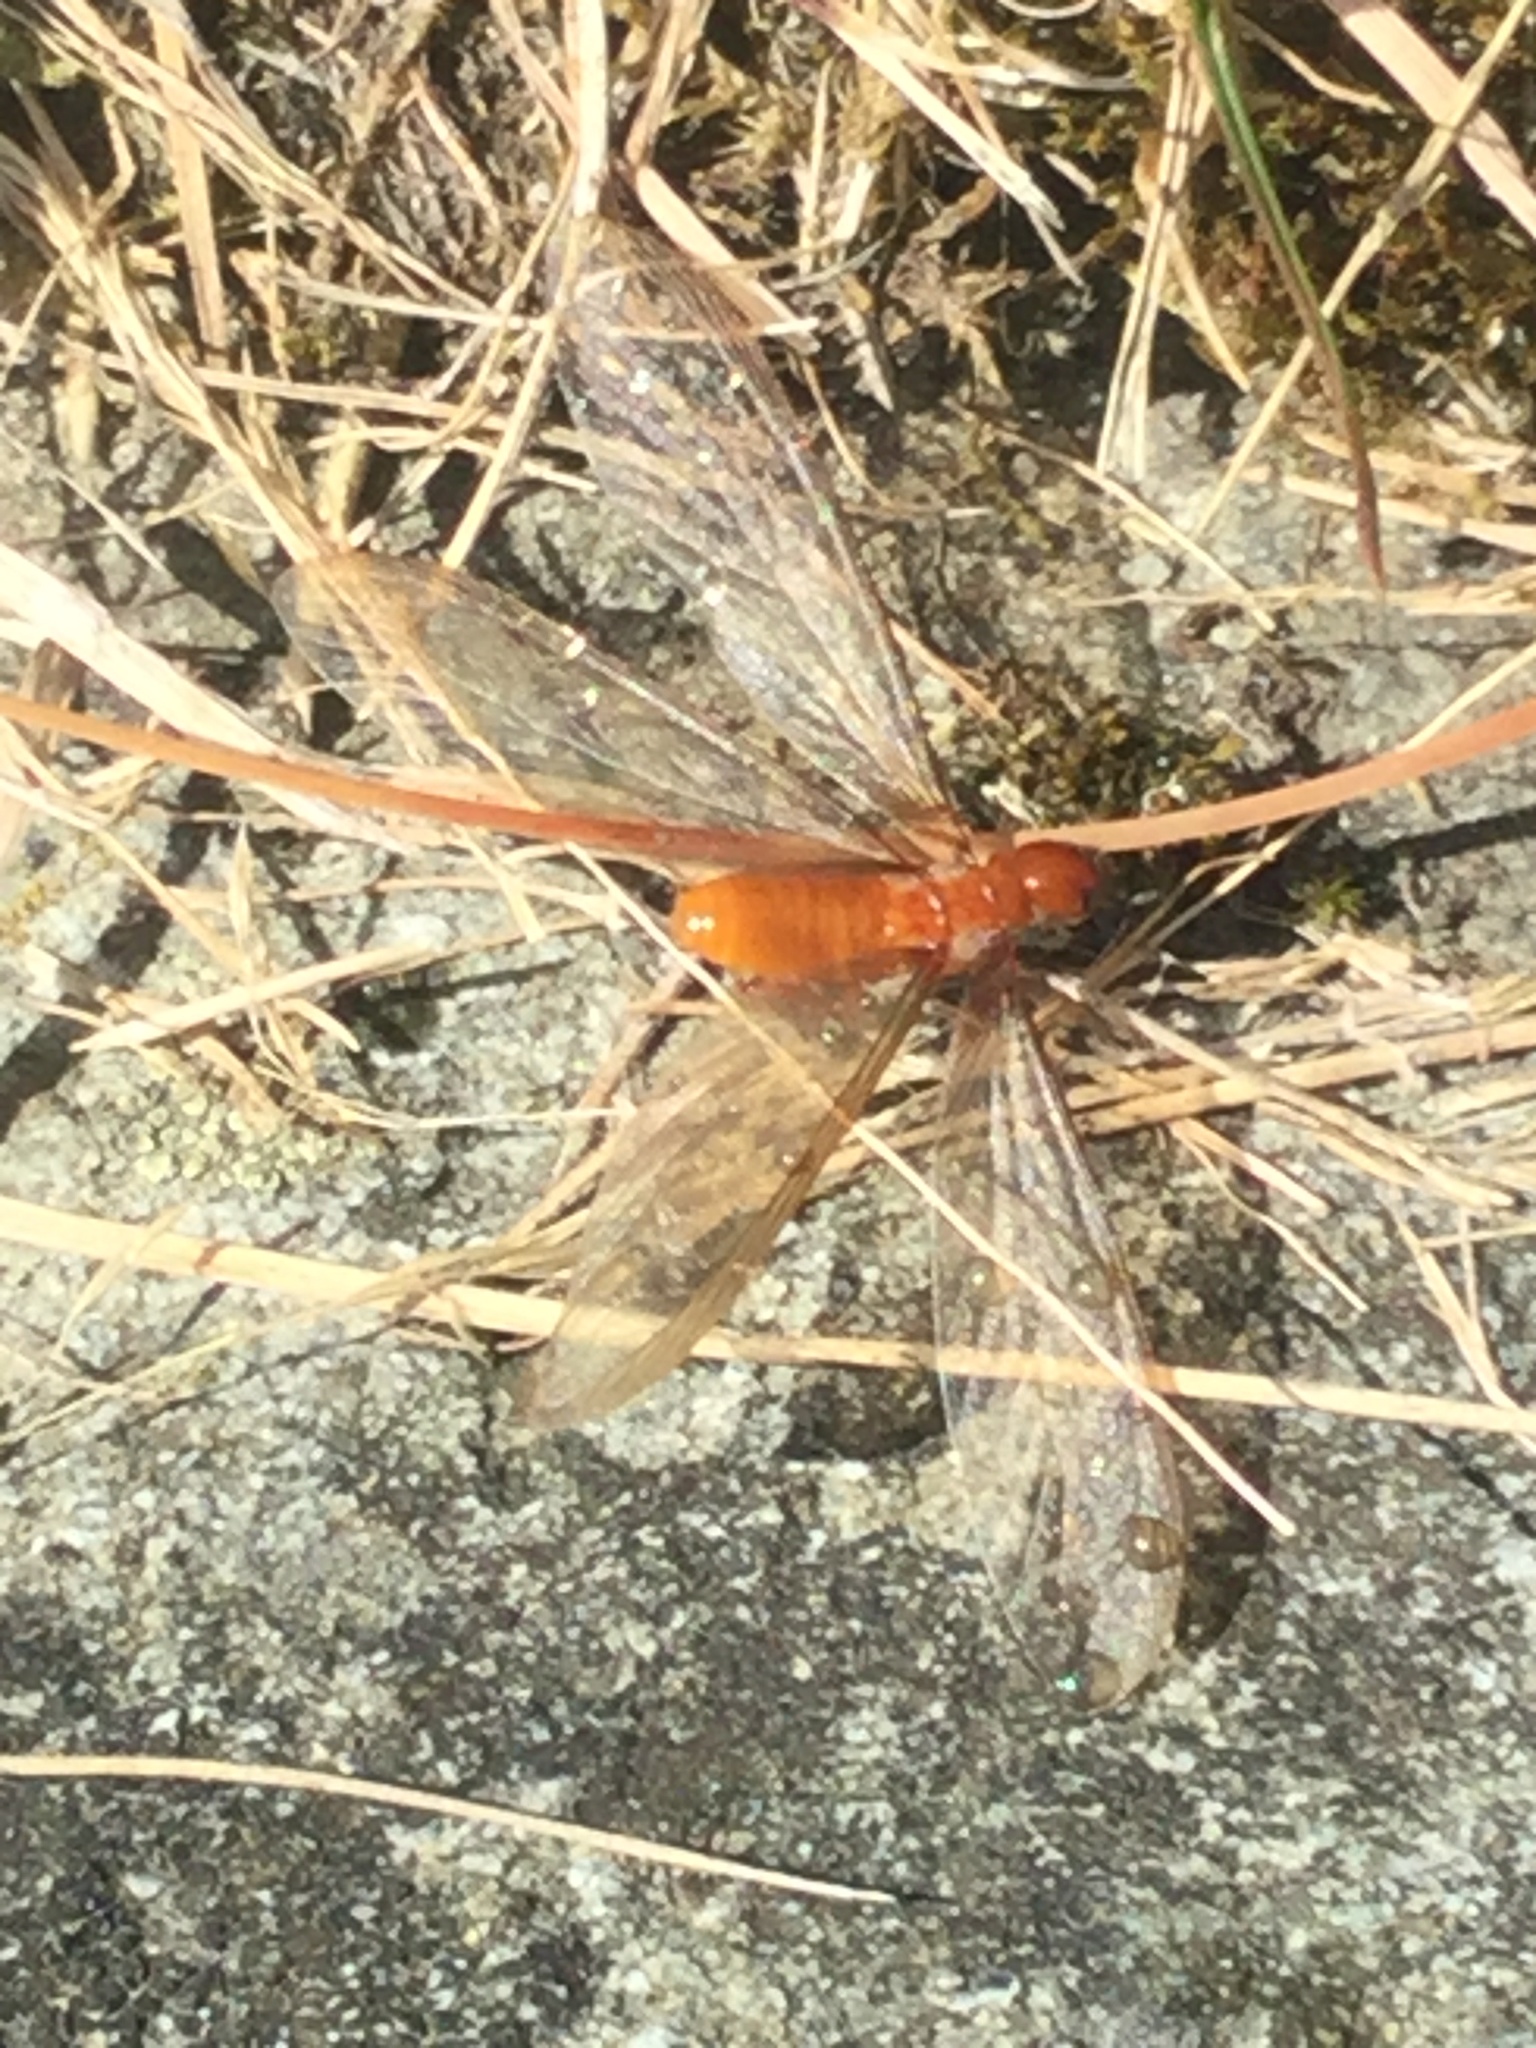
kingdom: Animalia
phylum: Arthropoda
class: Insecta
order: Blattodea
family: Archotermopsidae
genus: Zootermopsis
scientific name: Zootermopsis angusticollis
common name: Rottenwood termite
